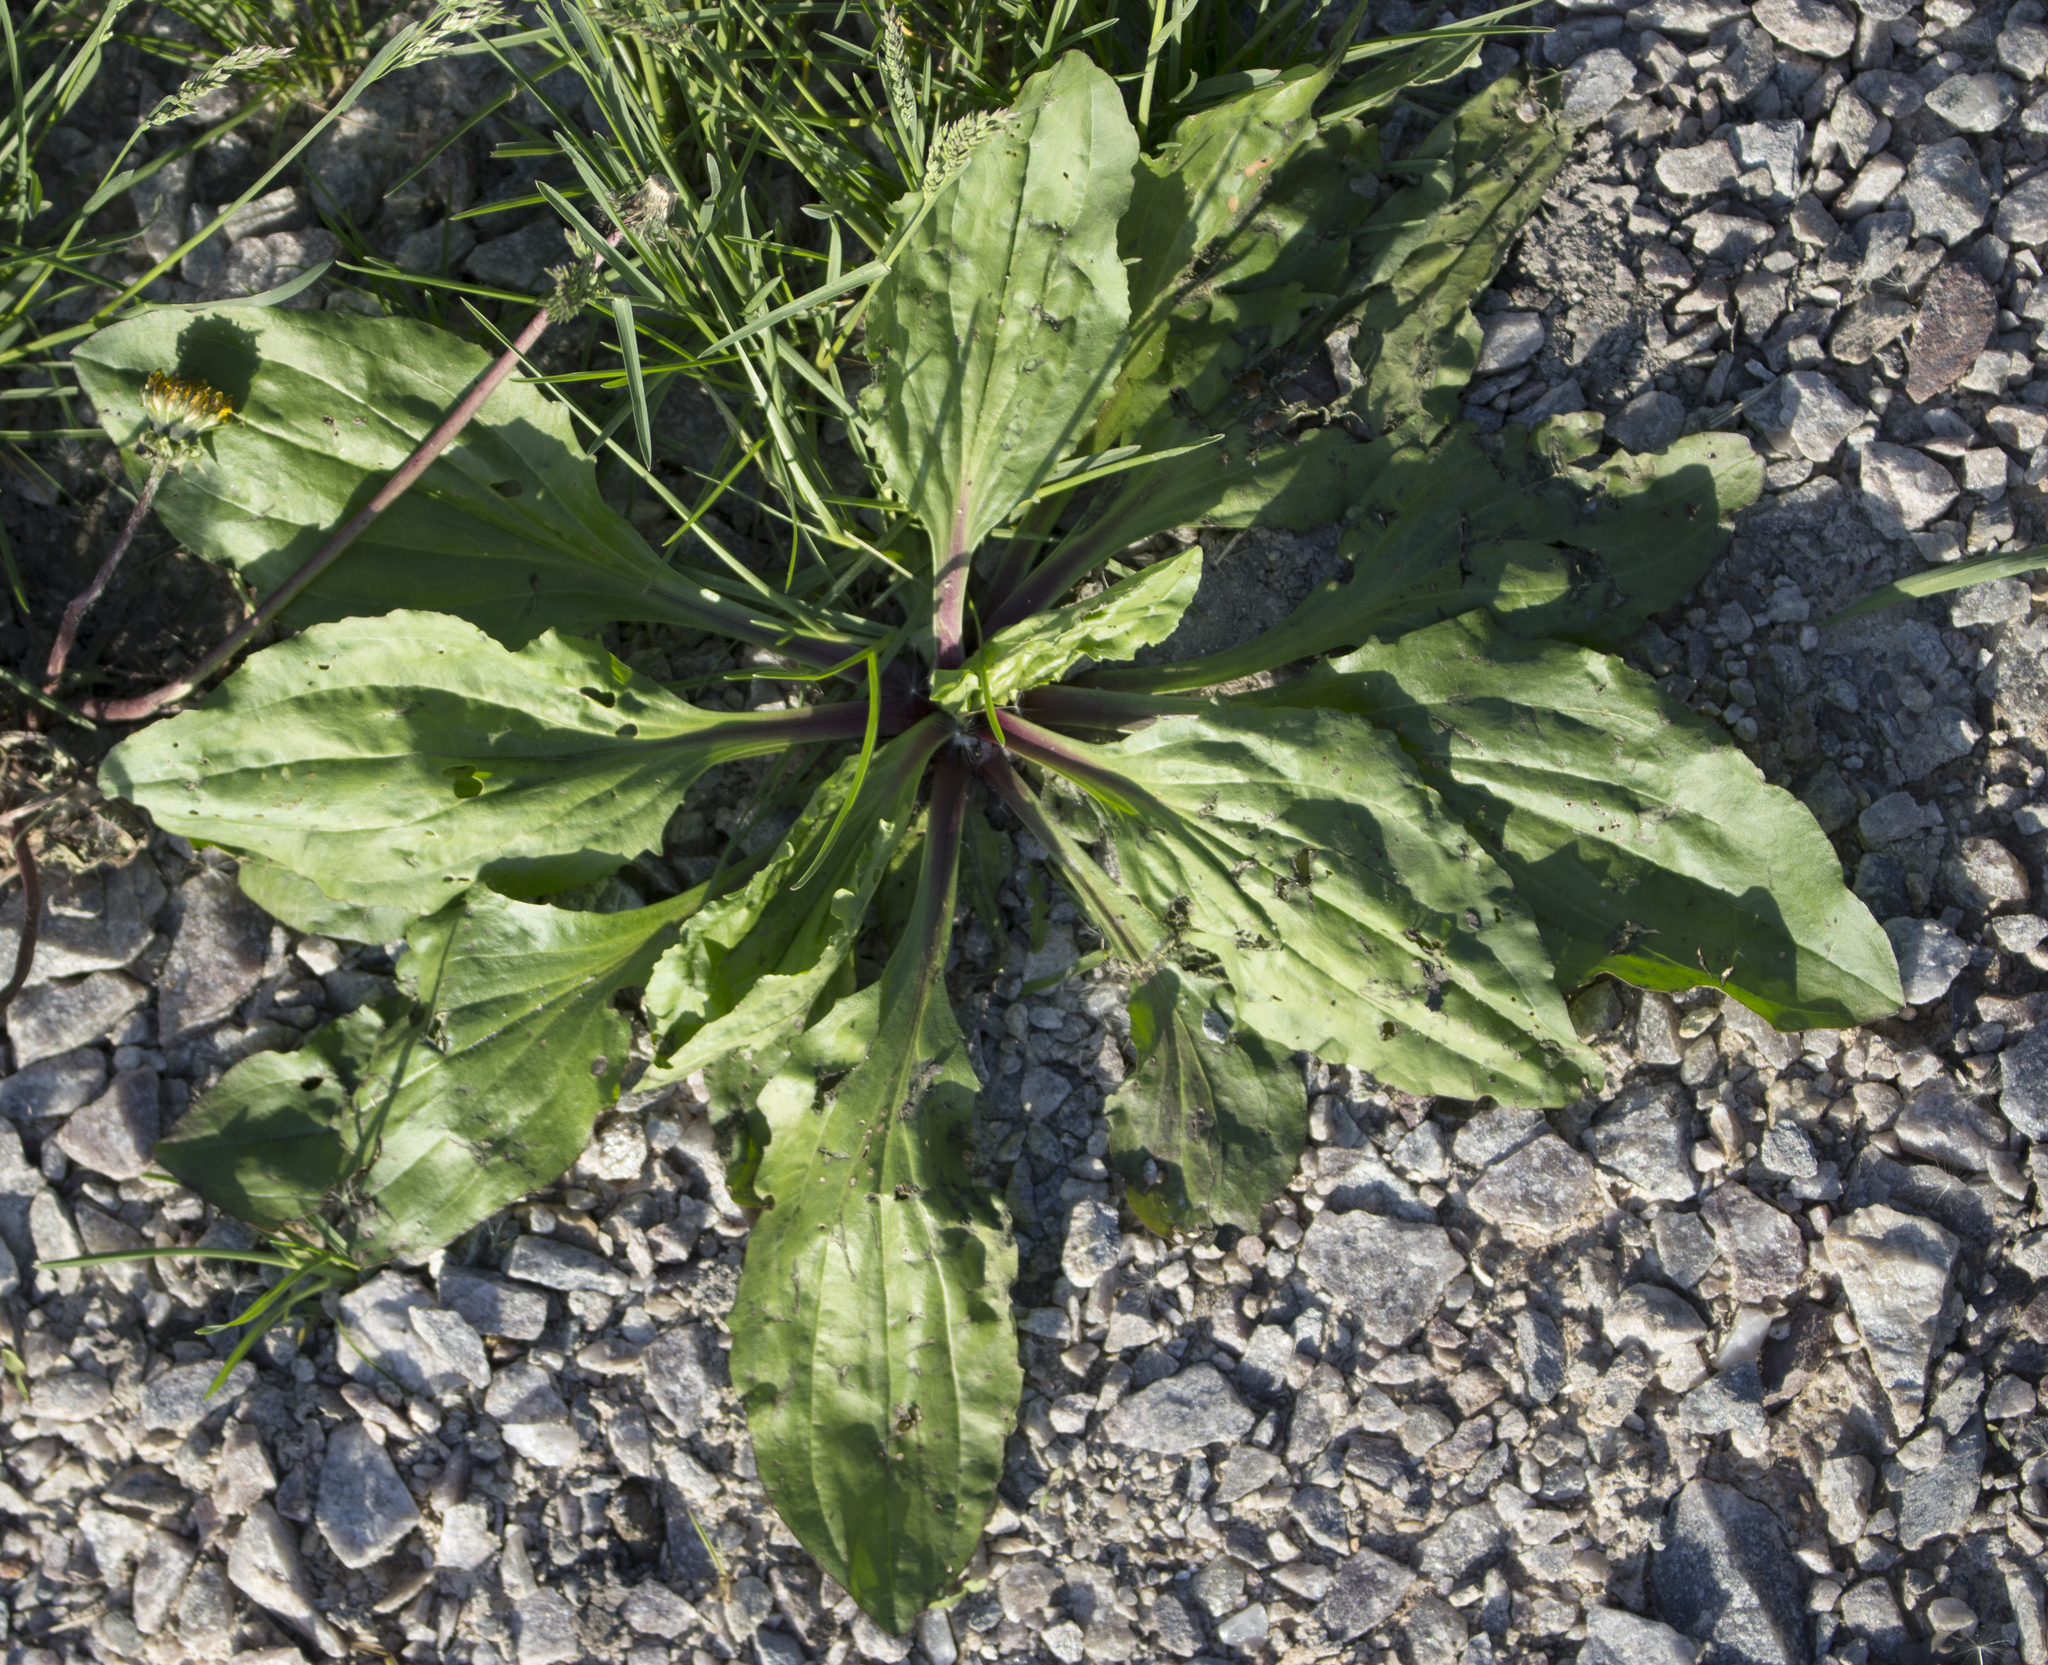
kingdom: Plantae
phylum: Tracheophyta
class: Magnoliopsida
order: Lamiales
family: Plantaginaceae
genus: Plantago
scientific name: Plantago rugelii
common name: American plantain
